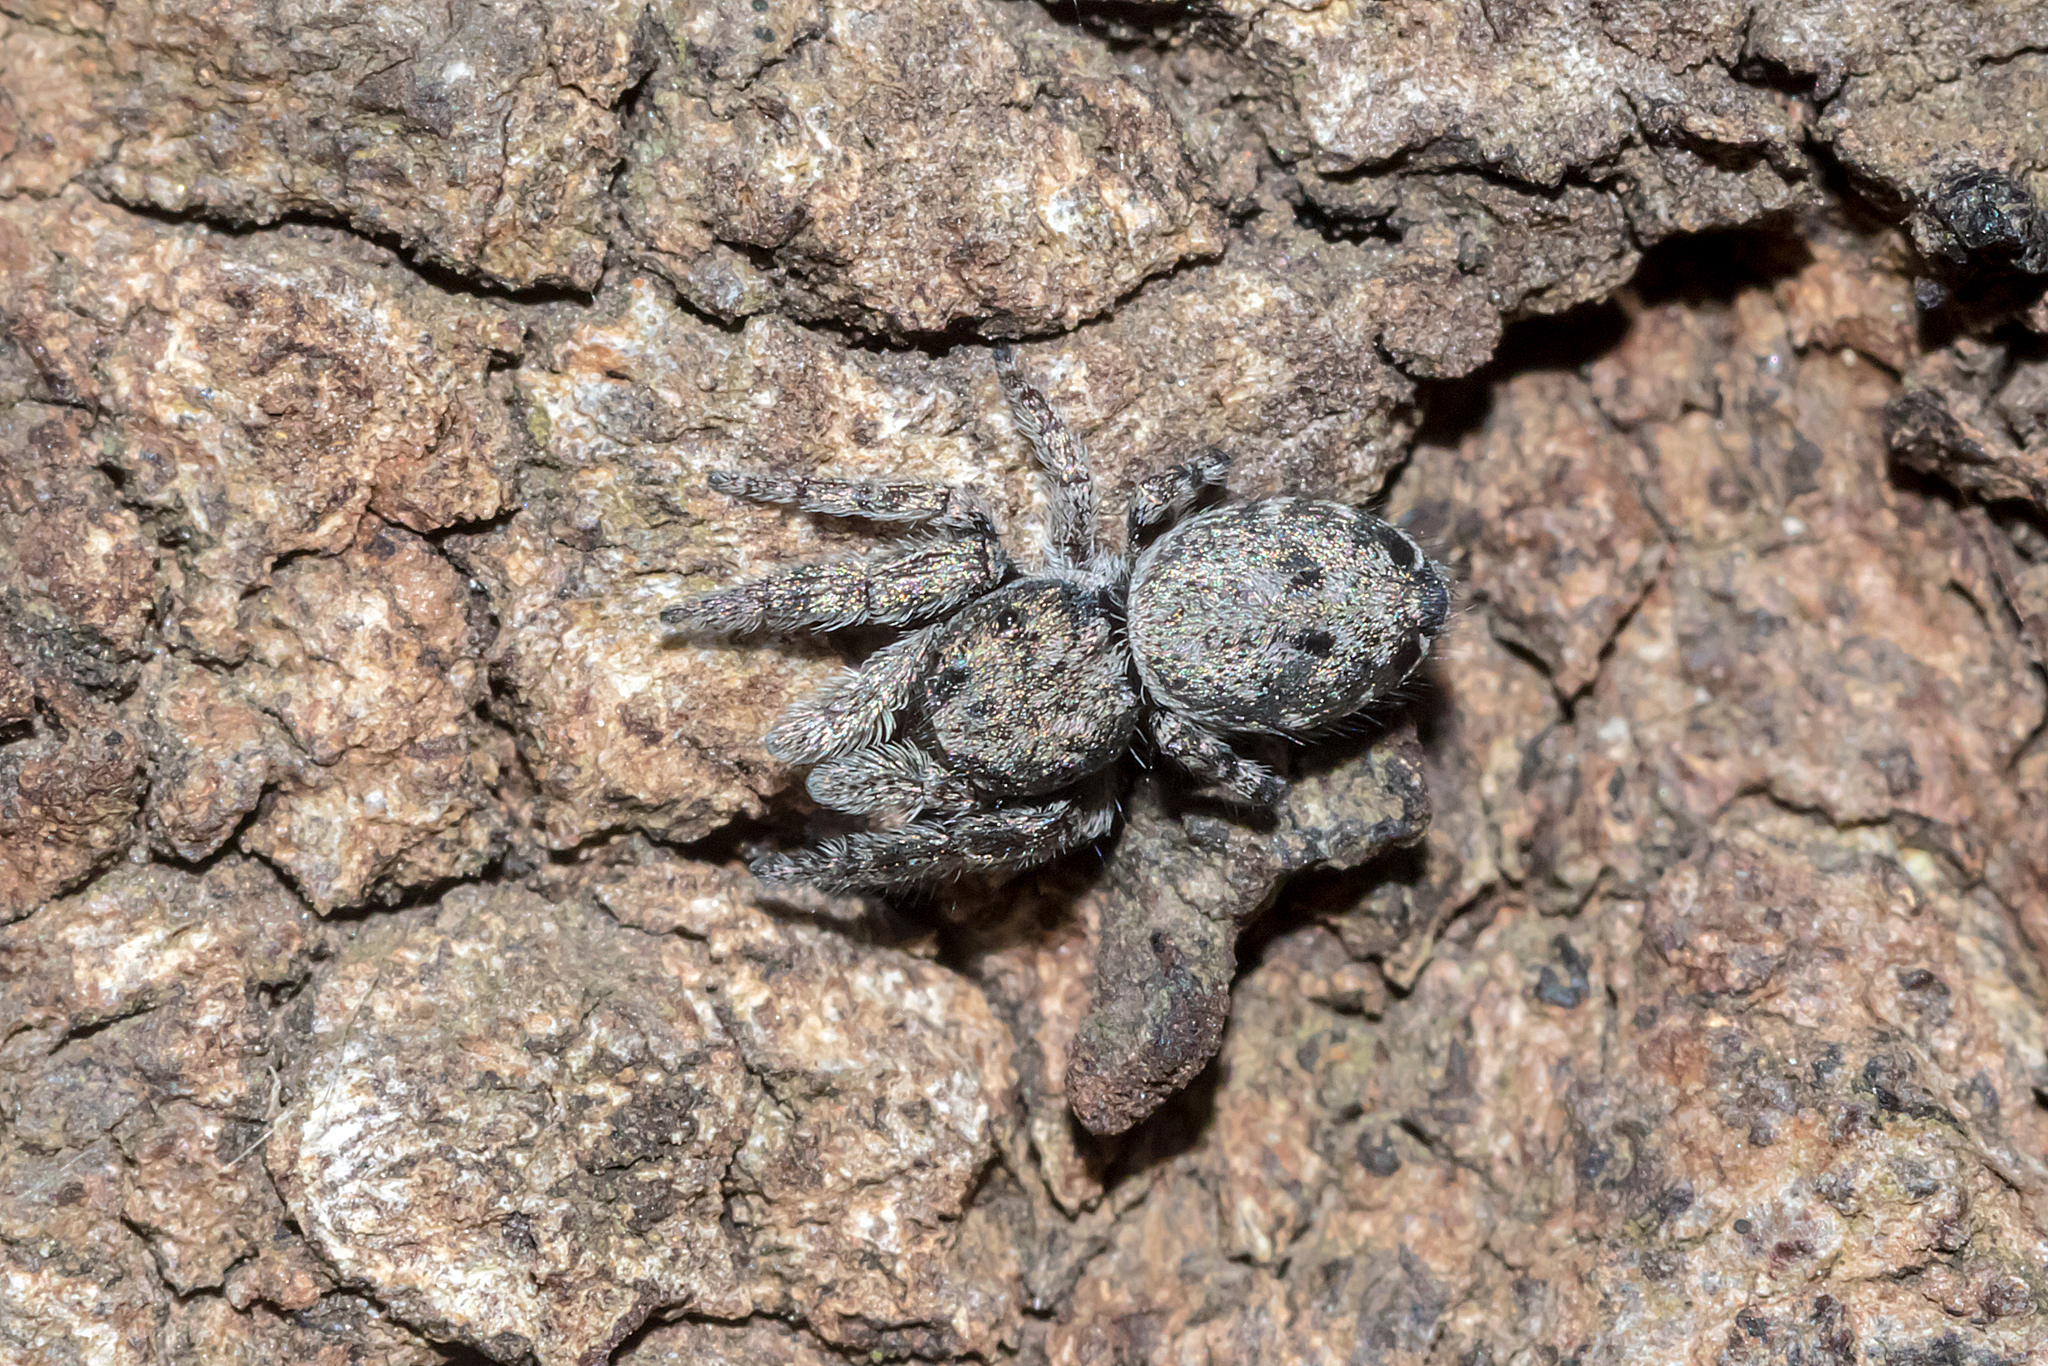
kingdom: Animalia
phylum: Arthropoda
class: Arachnida
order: Araneae
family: Salticidae
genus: Simaetha
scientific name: Simaetha tenuidens
